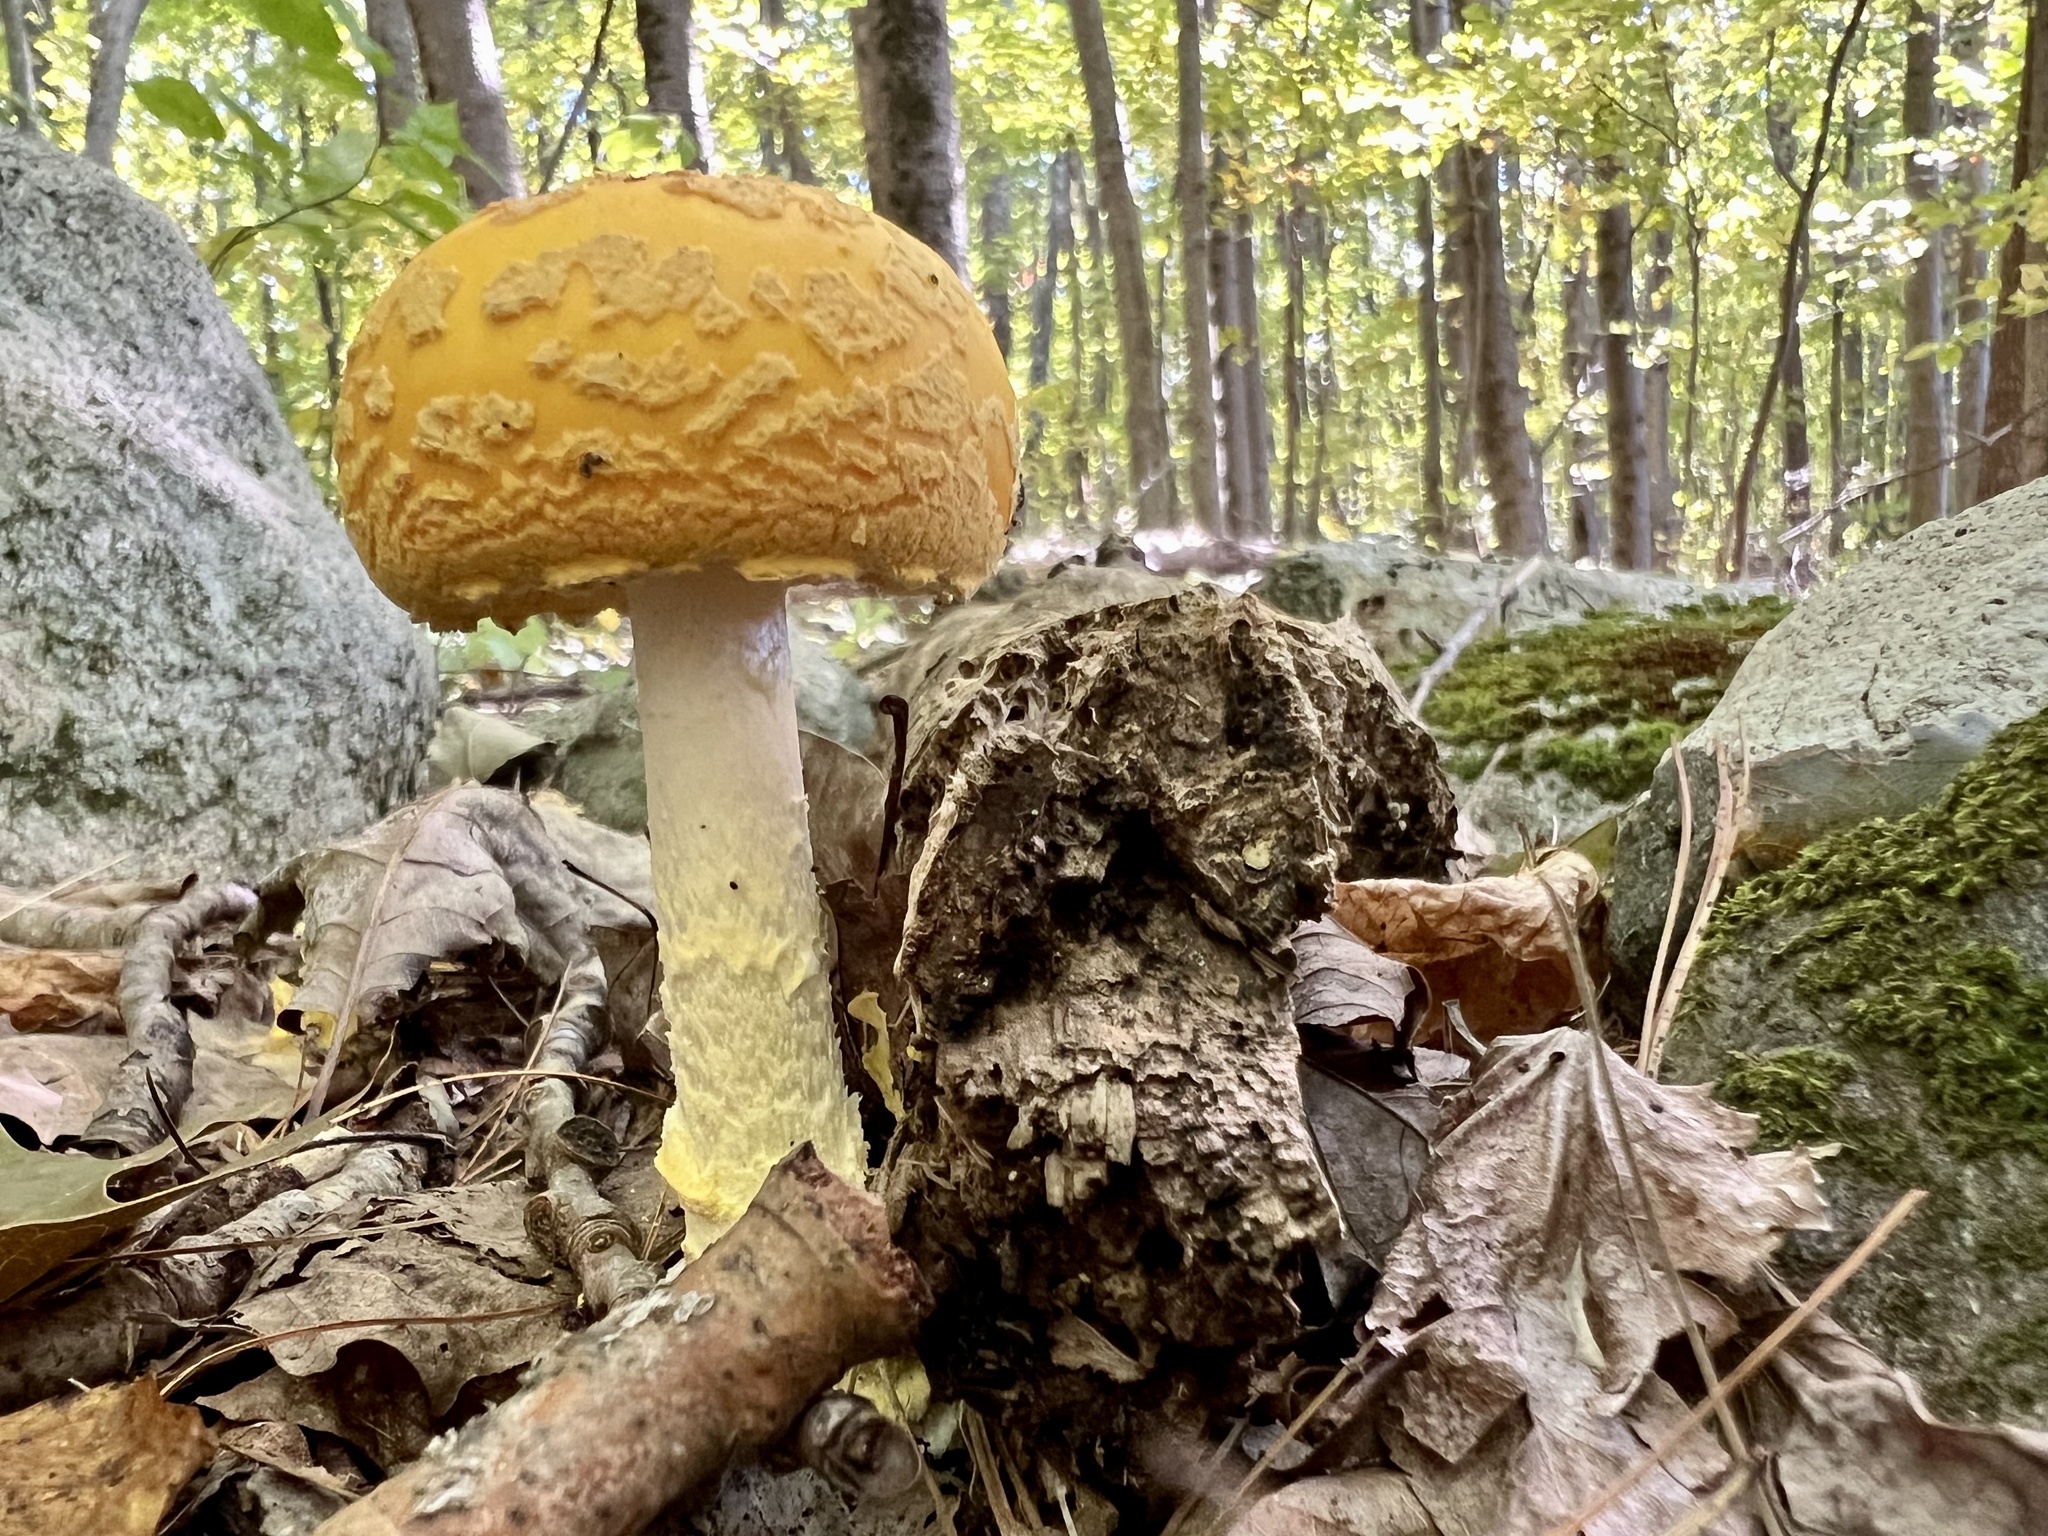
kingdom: Fungi
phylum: Basidiomycota
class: Agaricomycetes
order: Agaricales
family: Amanitaceae
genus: Amanita
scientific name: Amanita muscaria
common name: Fly agaric
